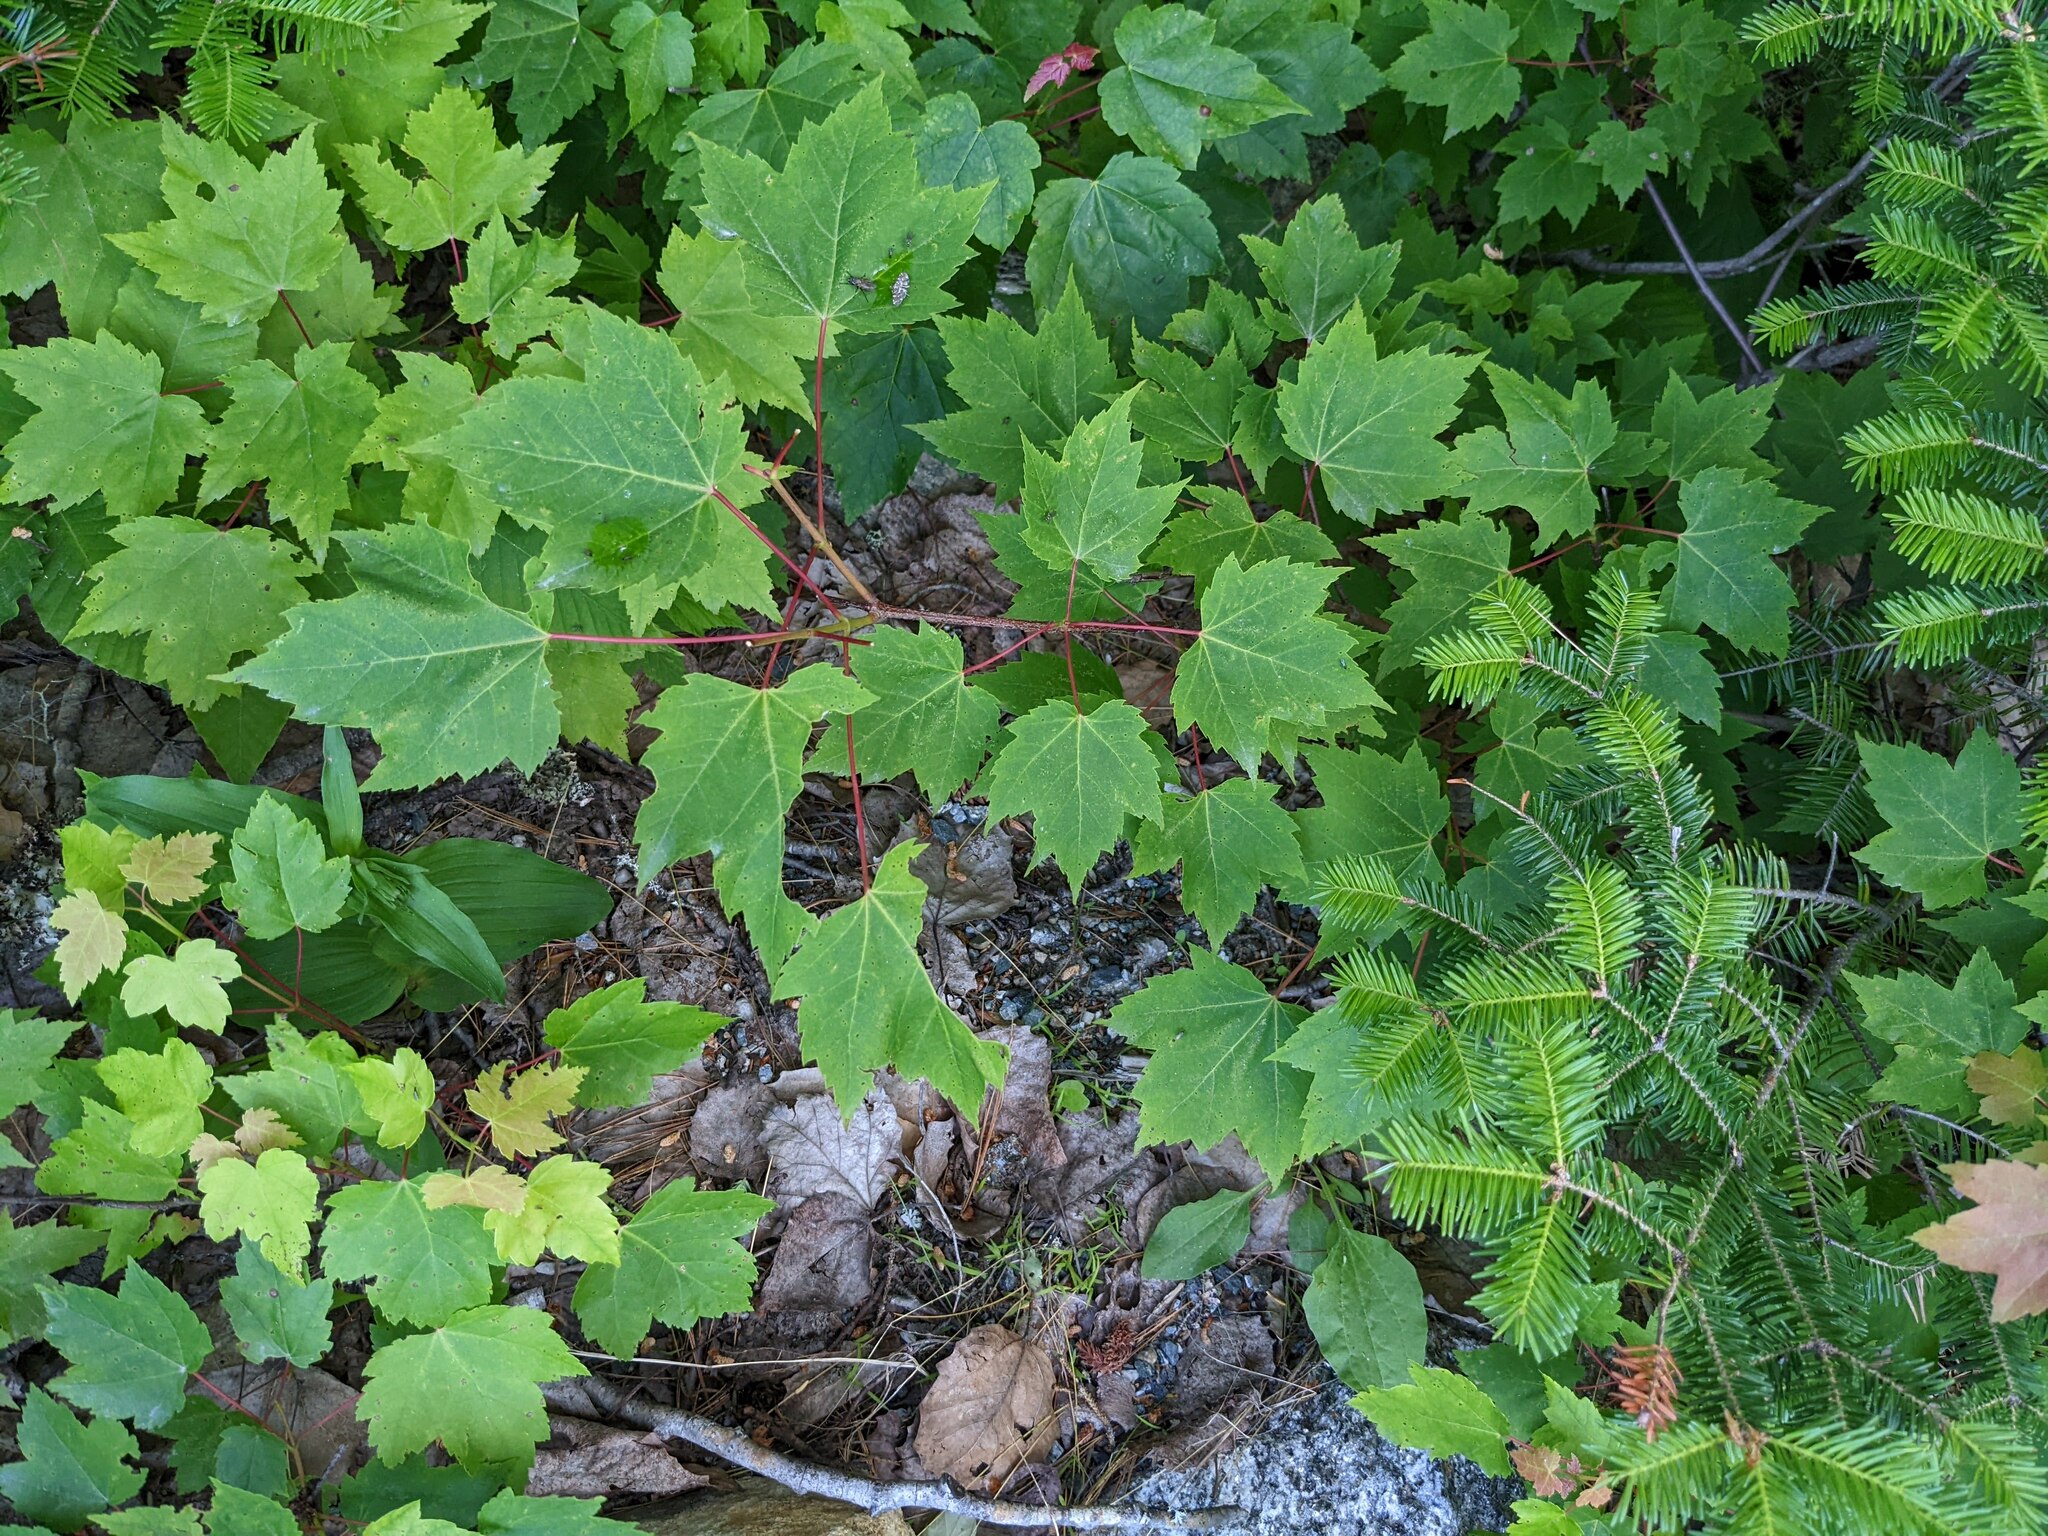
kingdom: Plantae
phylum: Tracheophyta
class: Magnoliopsida
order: Sapindales
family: Sapindaceae
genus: Acer
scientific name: Acer rubrum
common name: Red maple
